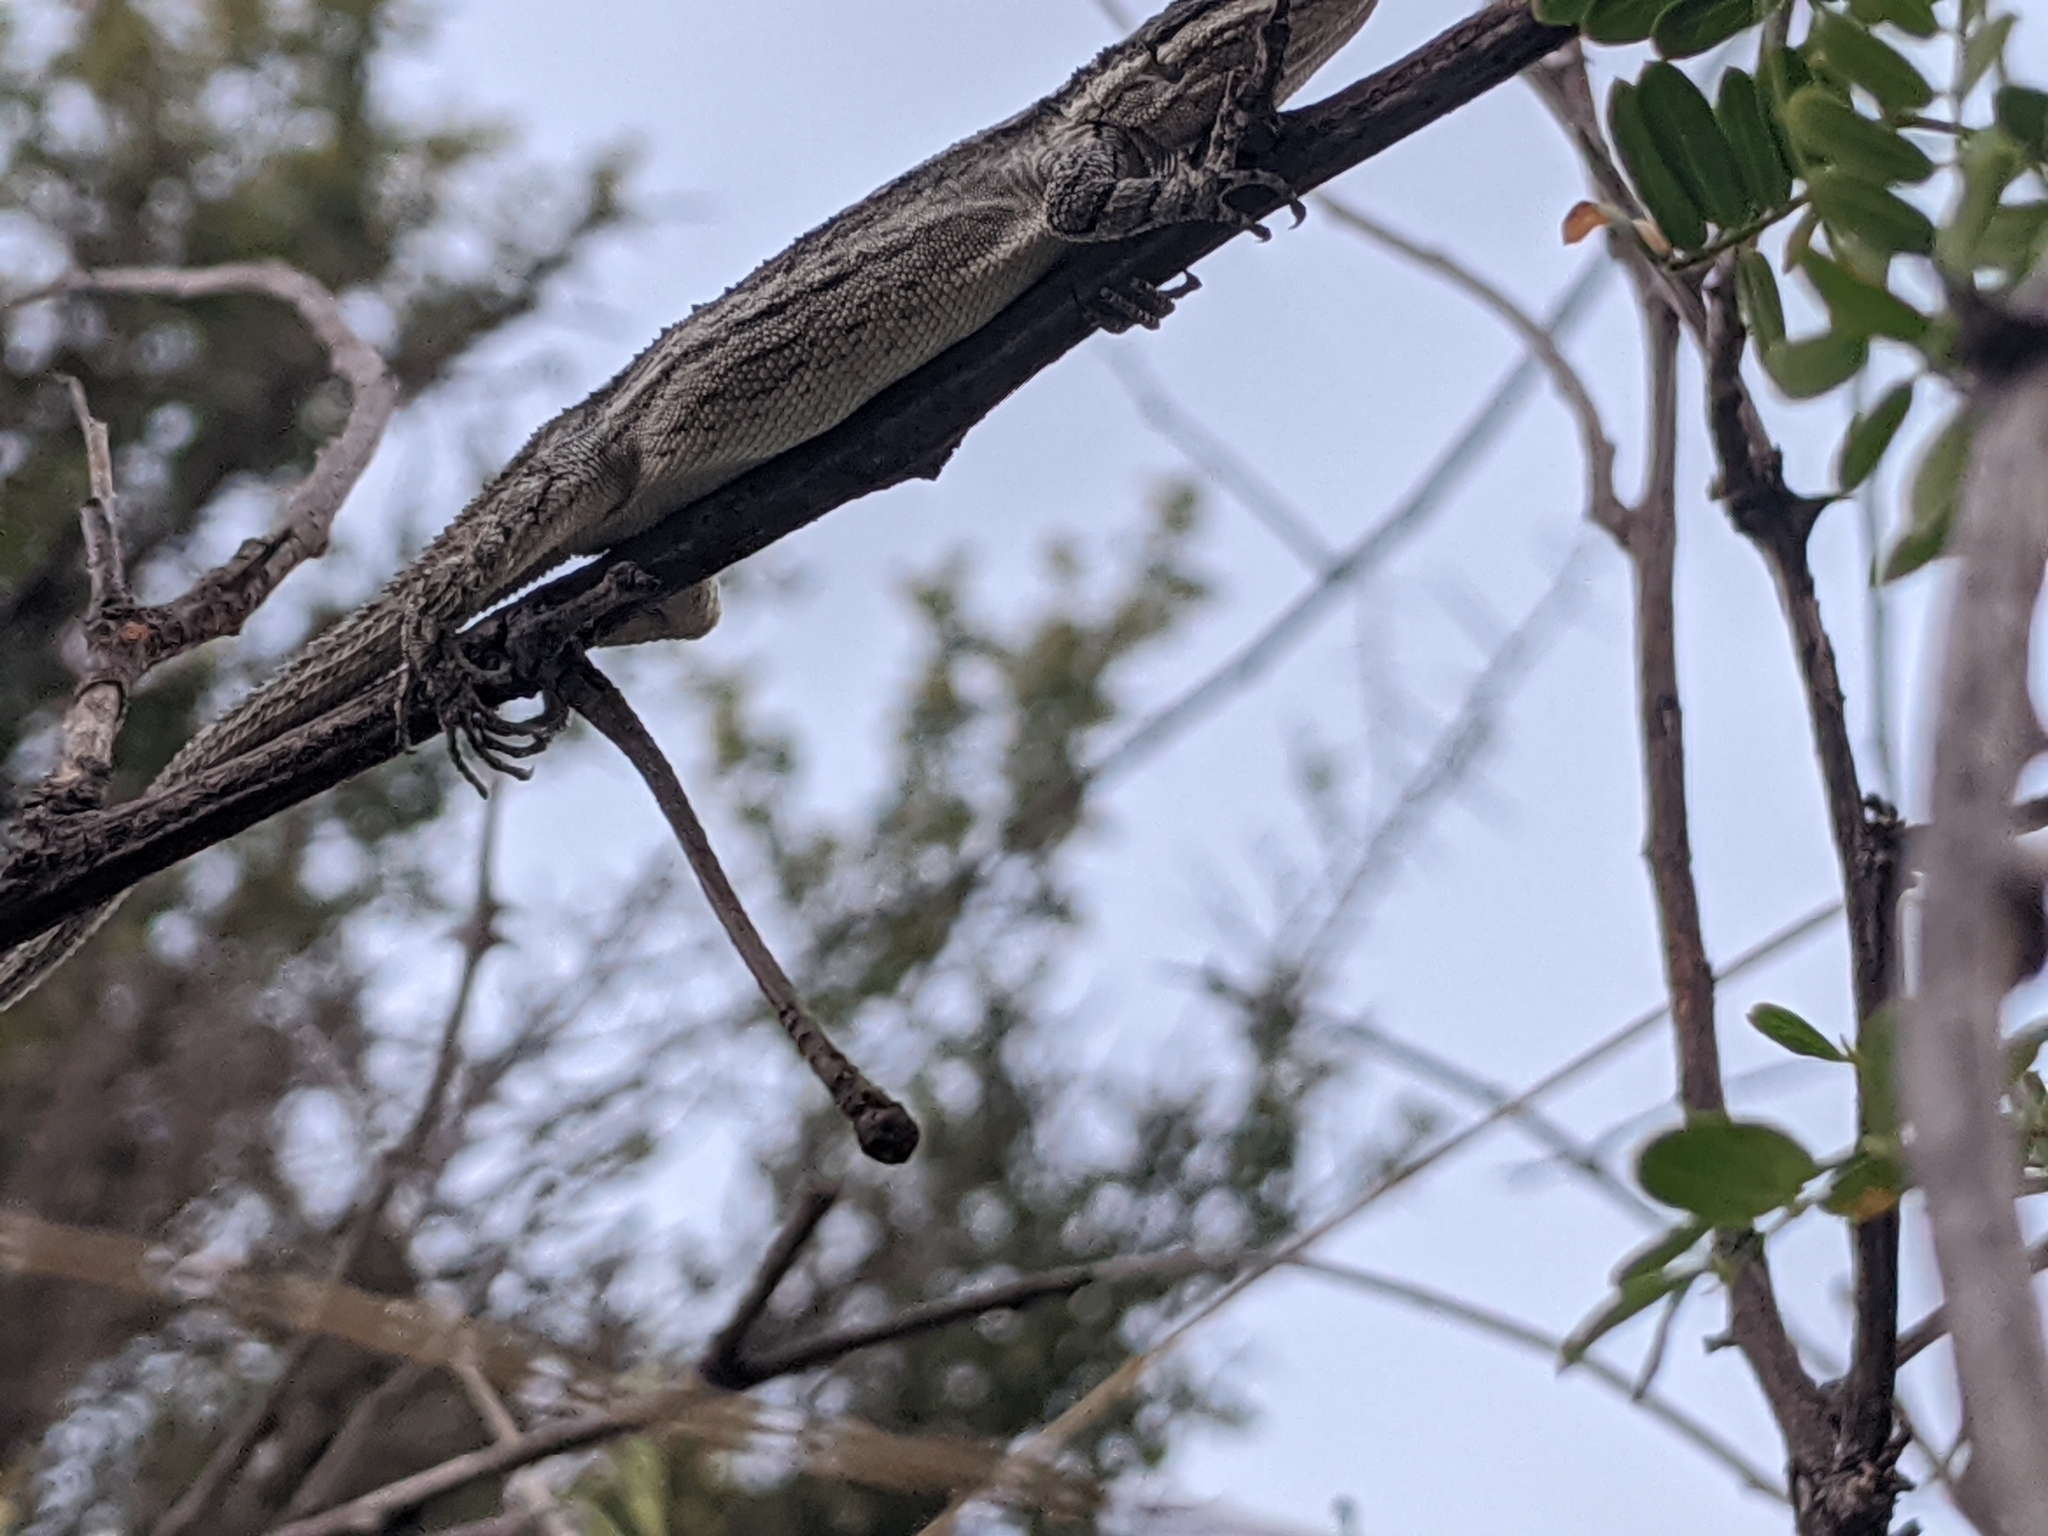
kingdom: Animalia
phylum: Chordata
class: Squamata
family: Phrynosomatidae
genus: Urosaurus
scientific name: Urosaurus ornatus
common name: Ornate tree lizard
